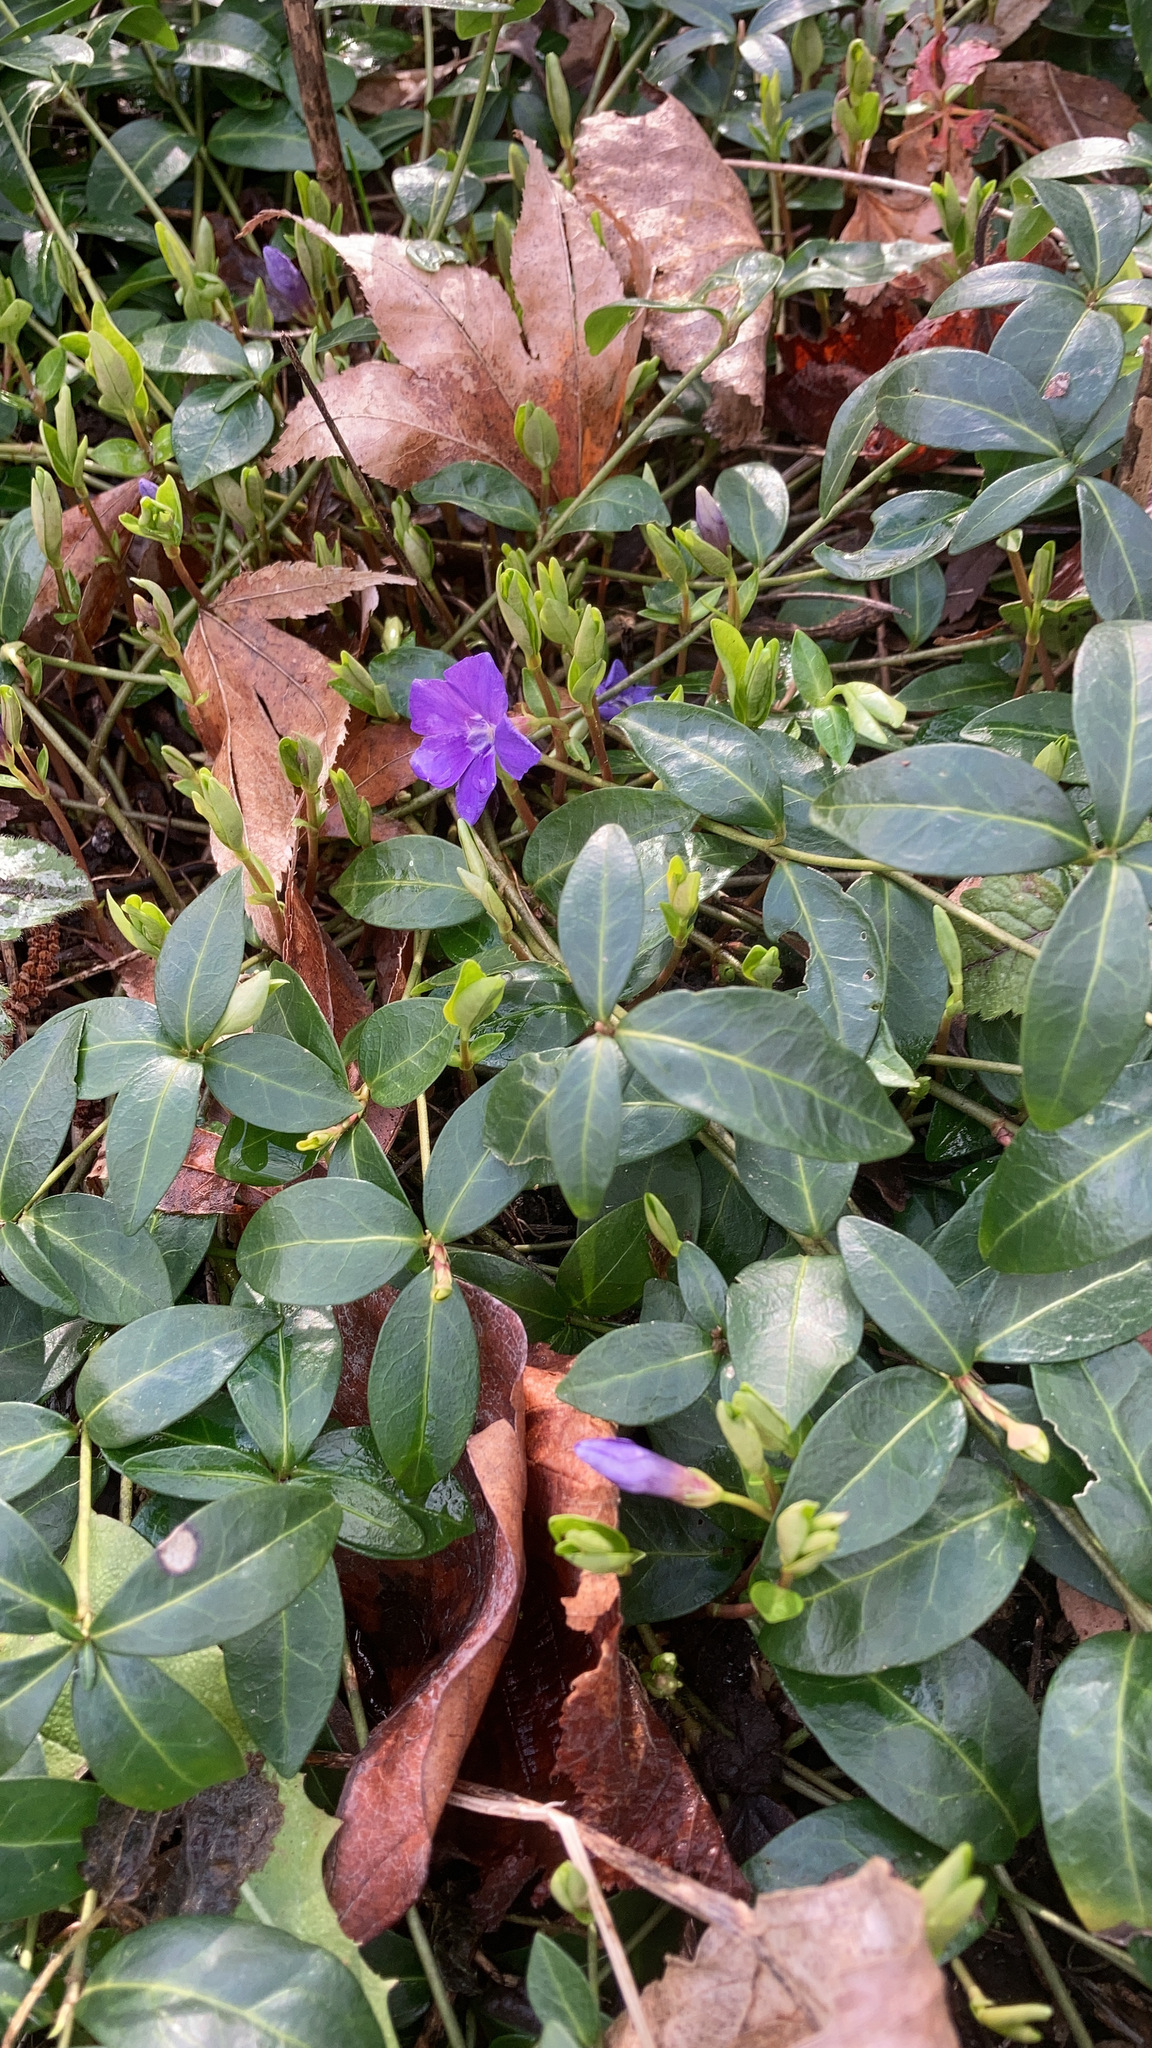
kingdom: Plantae
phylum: Tracheophyta
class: Magnoliopsida
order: Gentianales
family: Apocynaceae
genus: Vinca
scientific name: Vinca minor
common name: Lesser periwinkle
